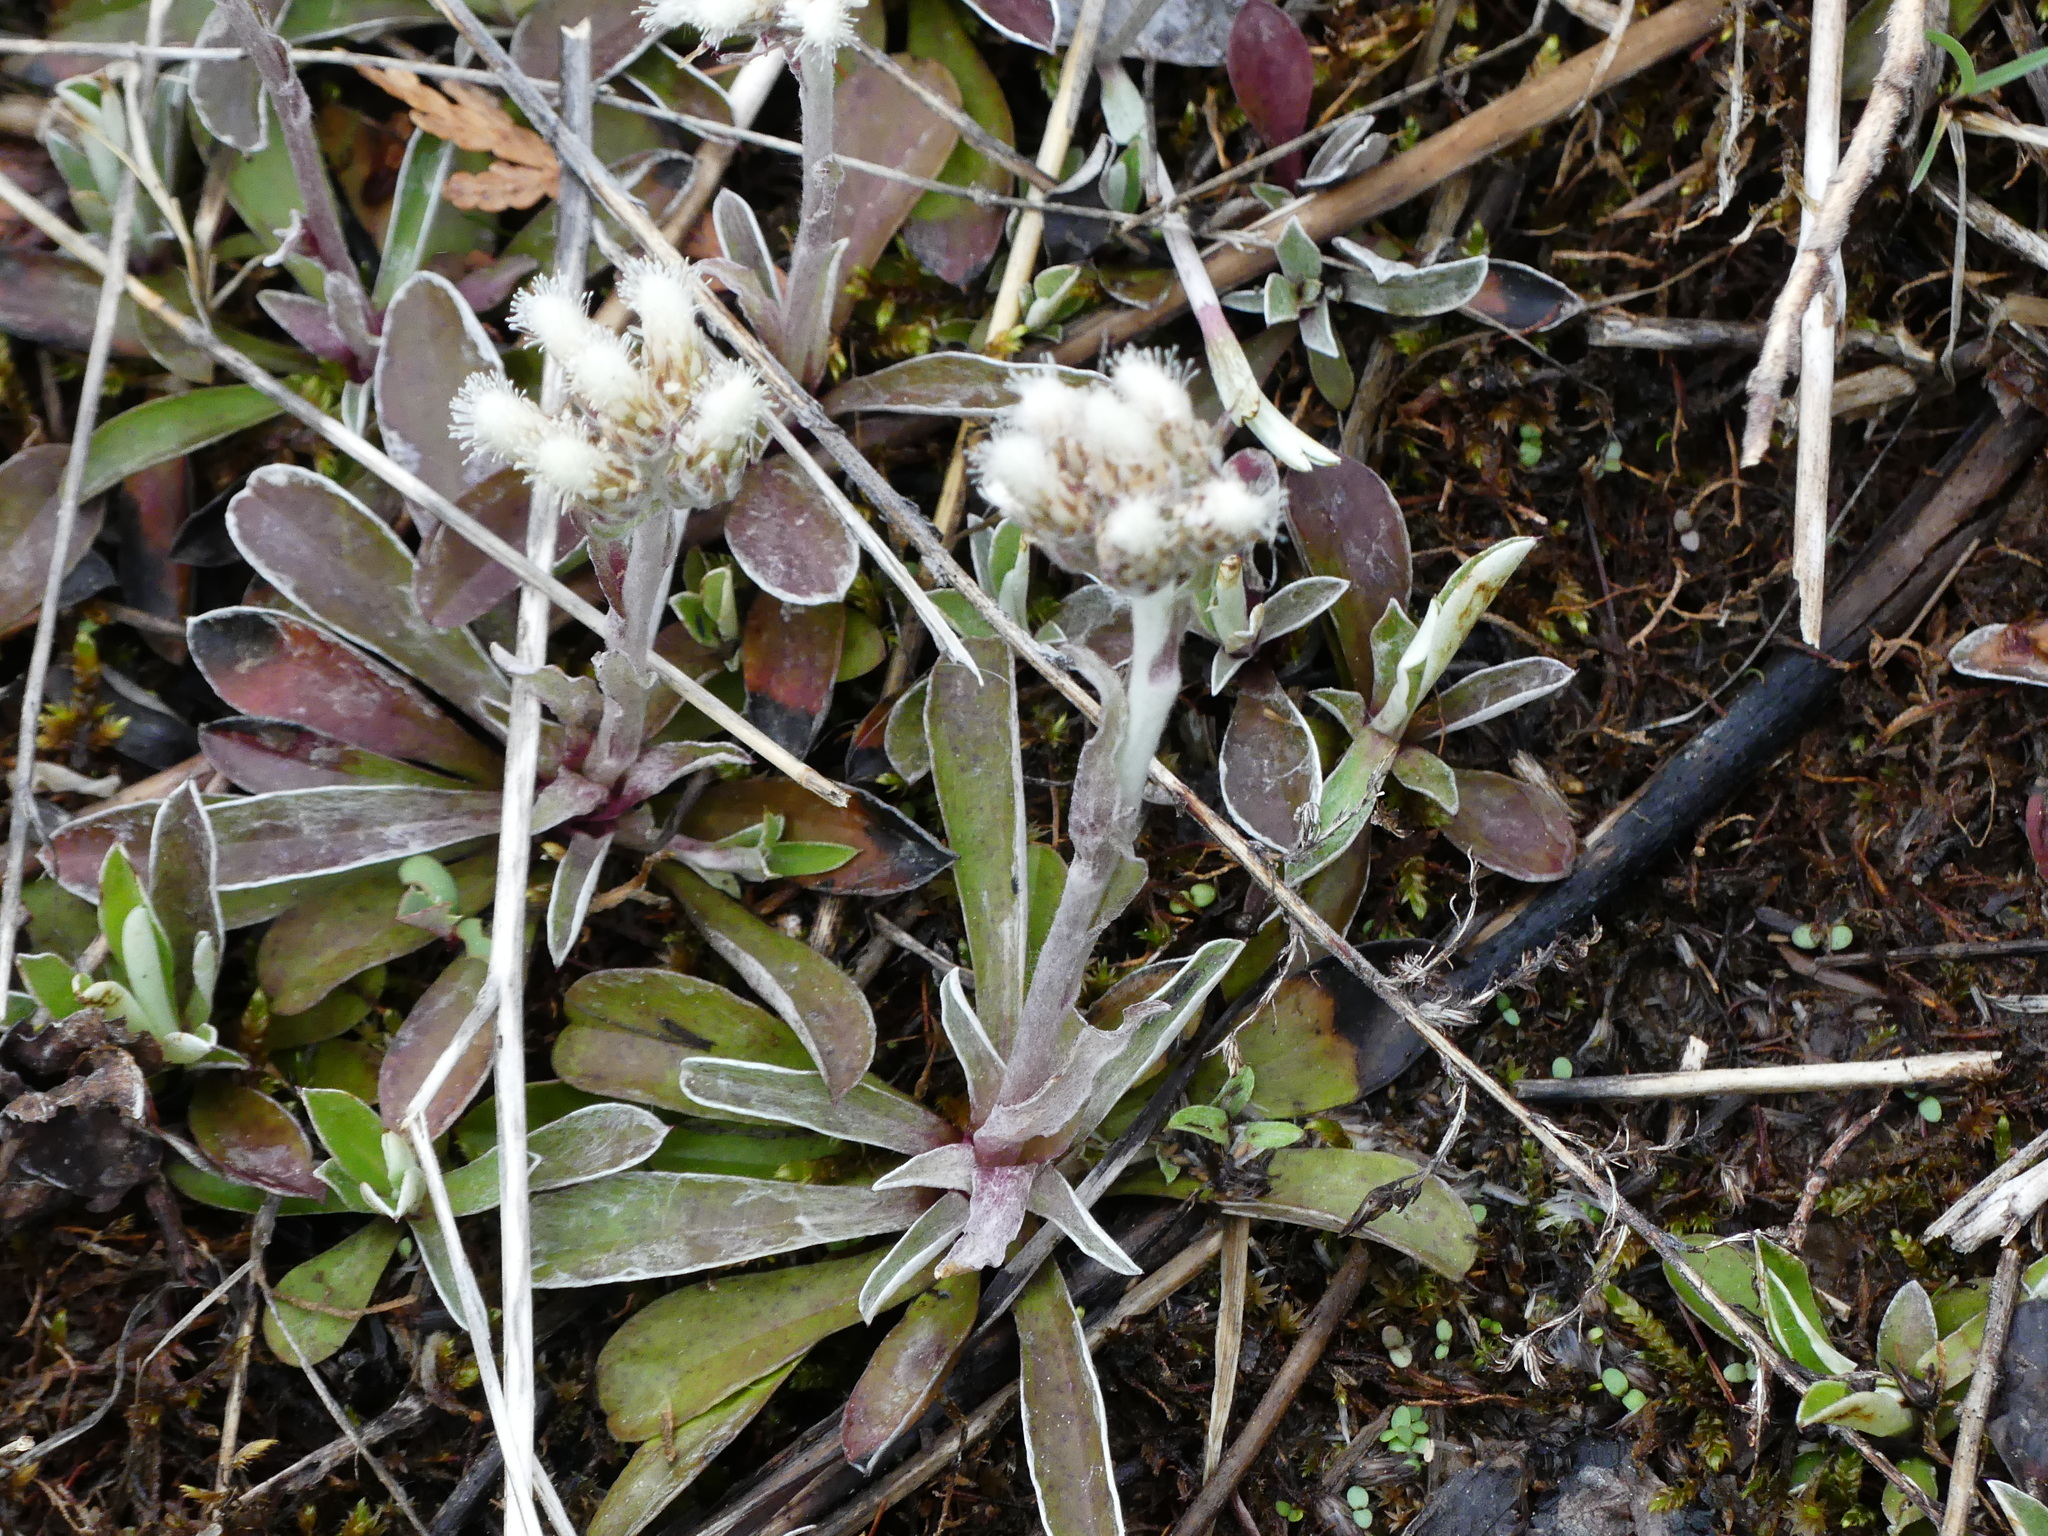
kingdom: Plantae
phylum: Tracheophyta
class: Magnoliopsida
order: Asterales
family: Asteraceae
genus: Antennaria
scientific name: Antennaria neglecta
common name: Field pussytoes
